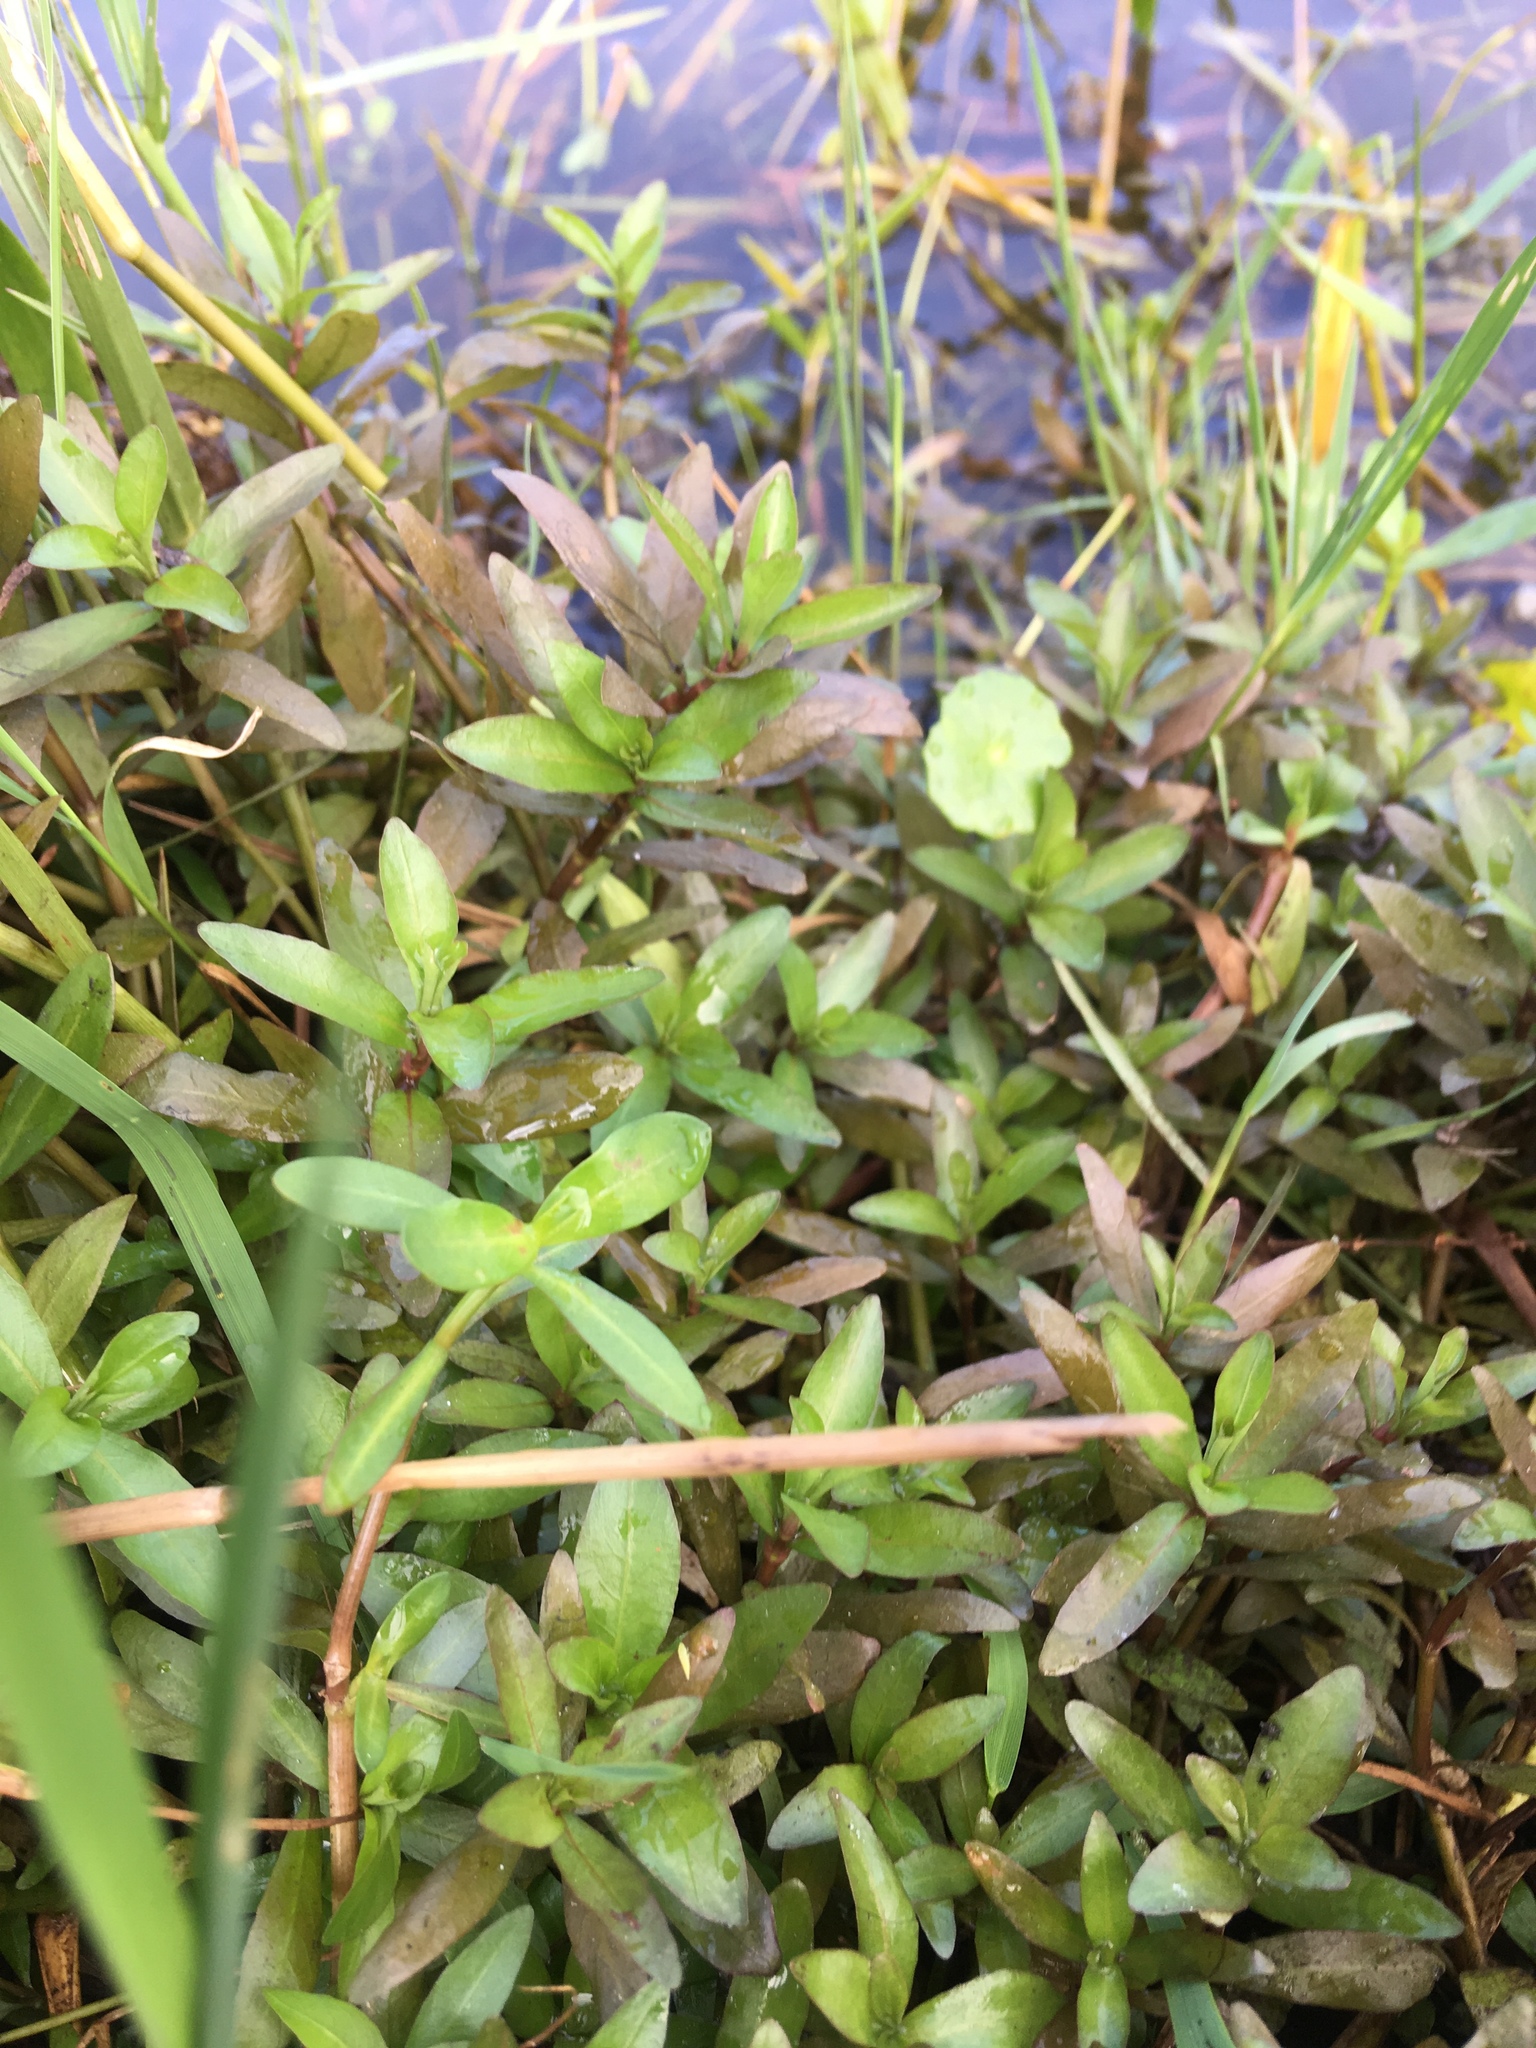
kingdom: Plantae
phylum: Tracheophyta
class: Magnoliopsida
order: Lamiales
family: Acanthaceae
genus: Hygrophila
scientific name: Hygrophila polysperma
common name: Indian swampweed
